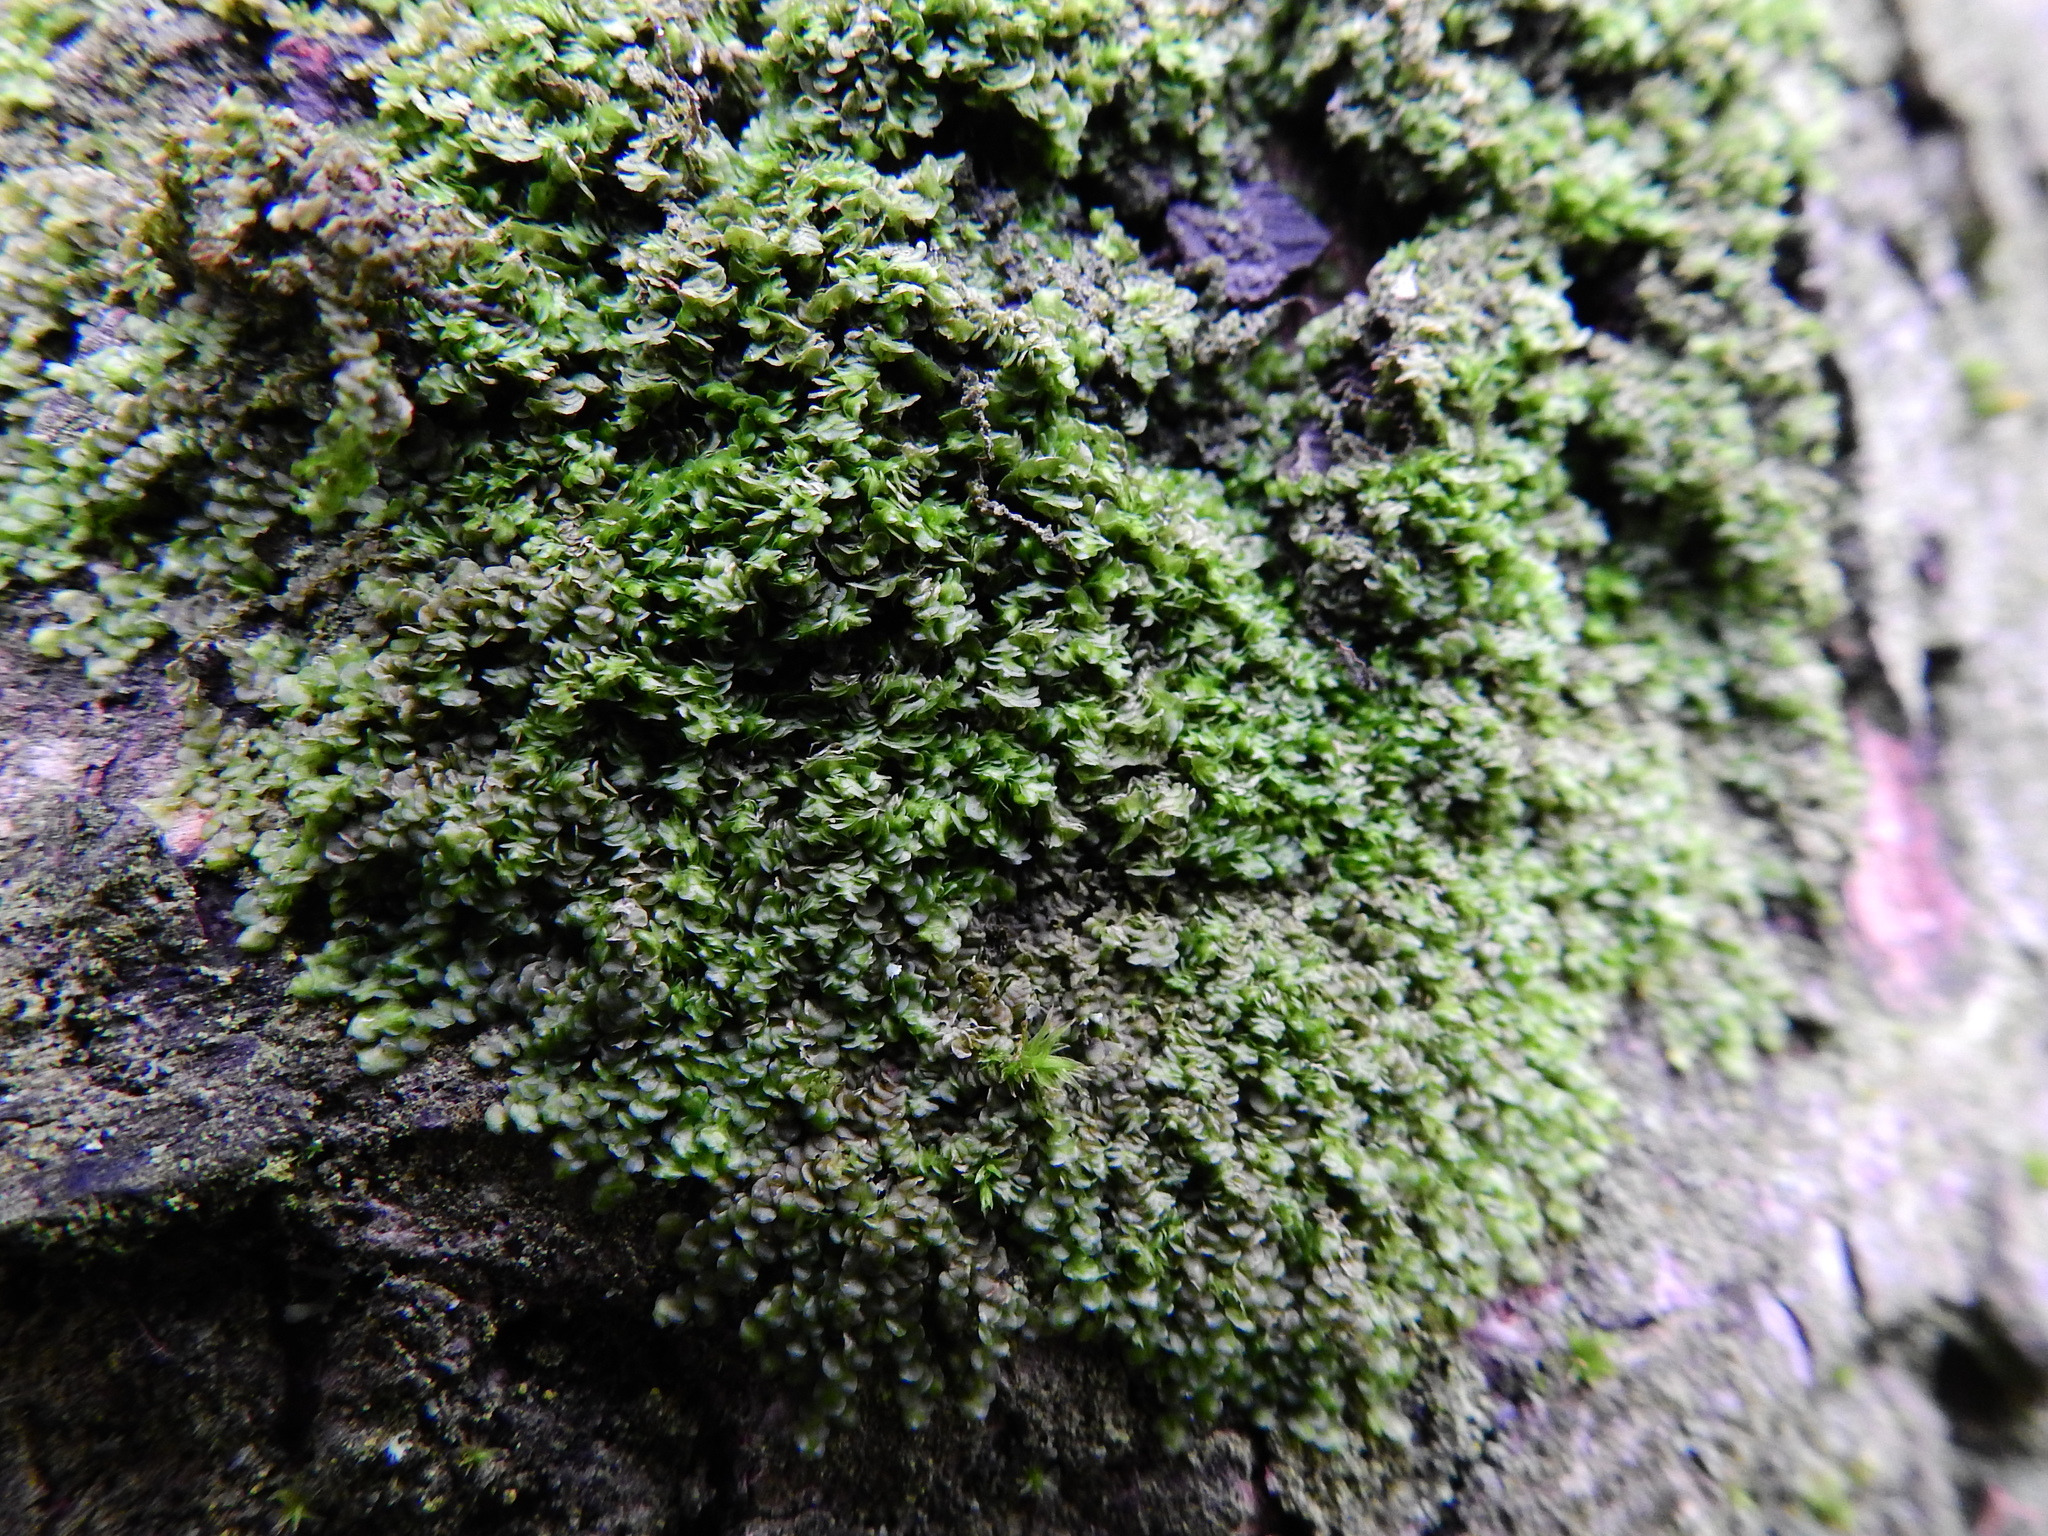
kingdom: Plantae
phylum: Marchantiophyta
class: Jungermanniopsida
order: Porellales
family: Frullaniaceae
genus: Frullania
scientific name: Frullania dilatata
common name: Dilated scalewort
